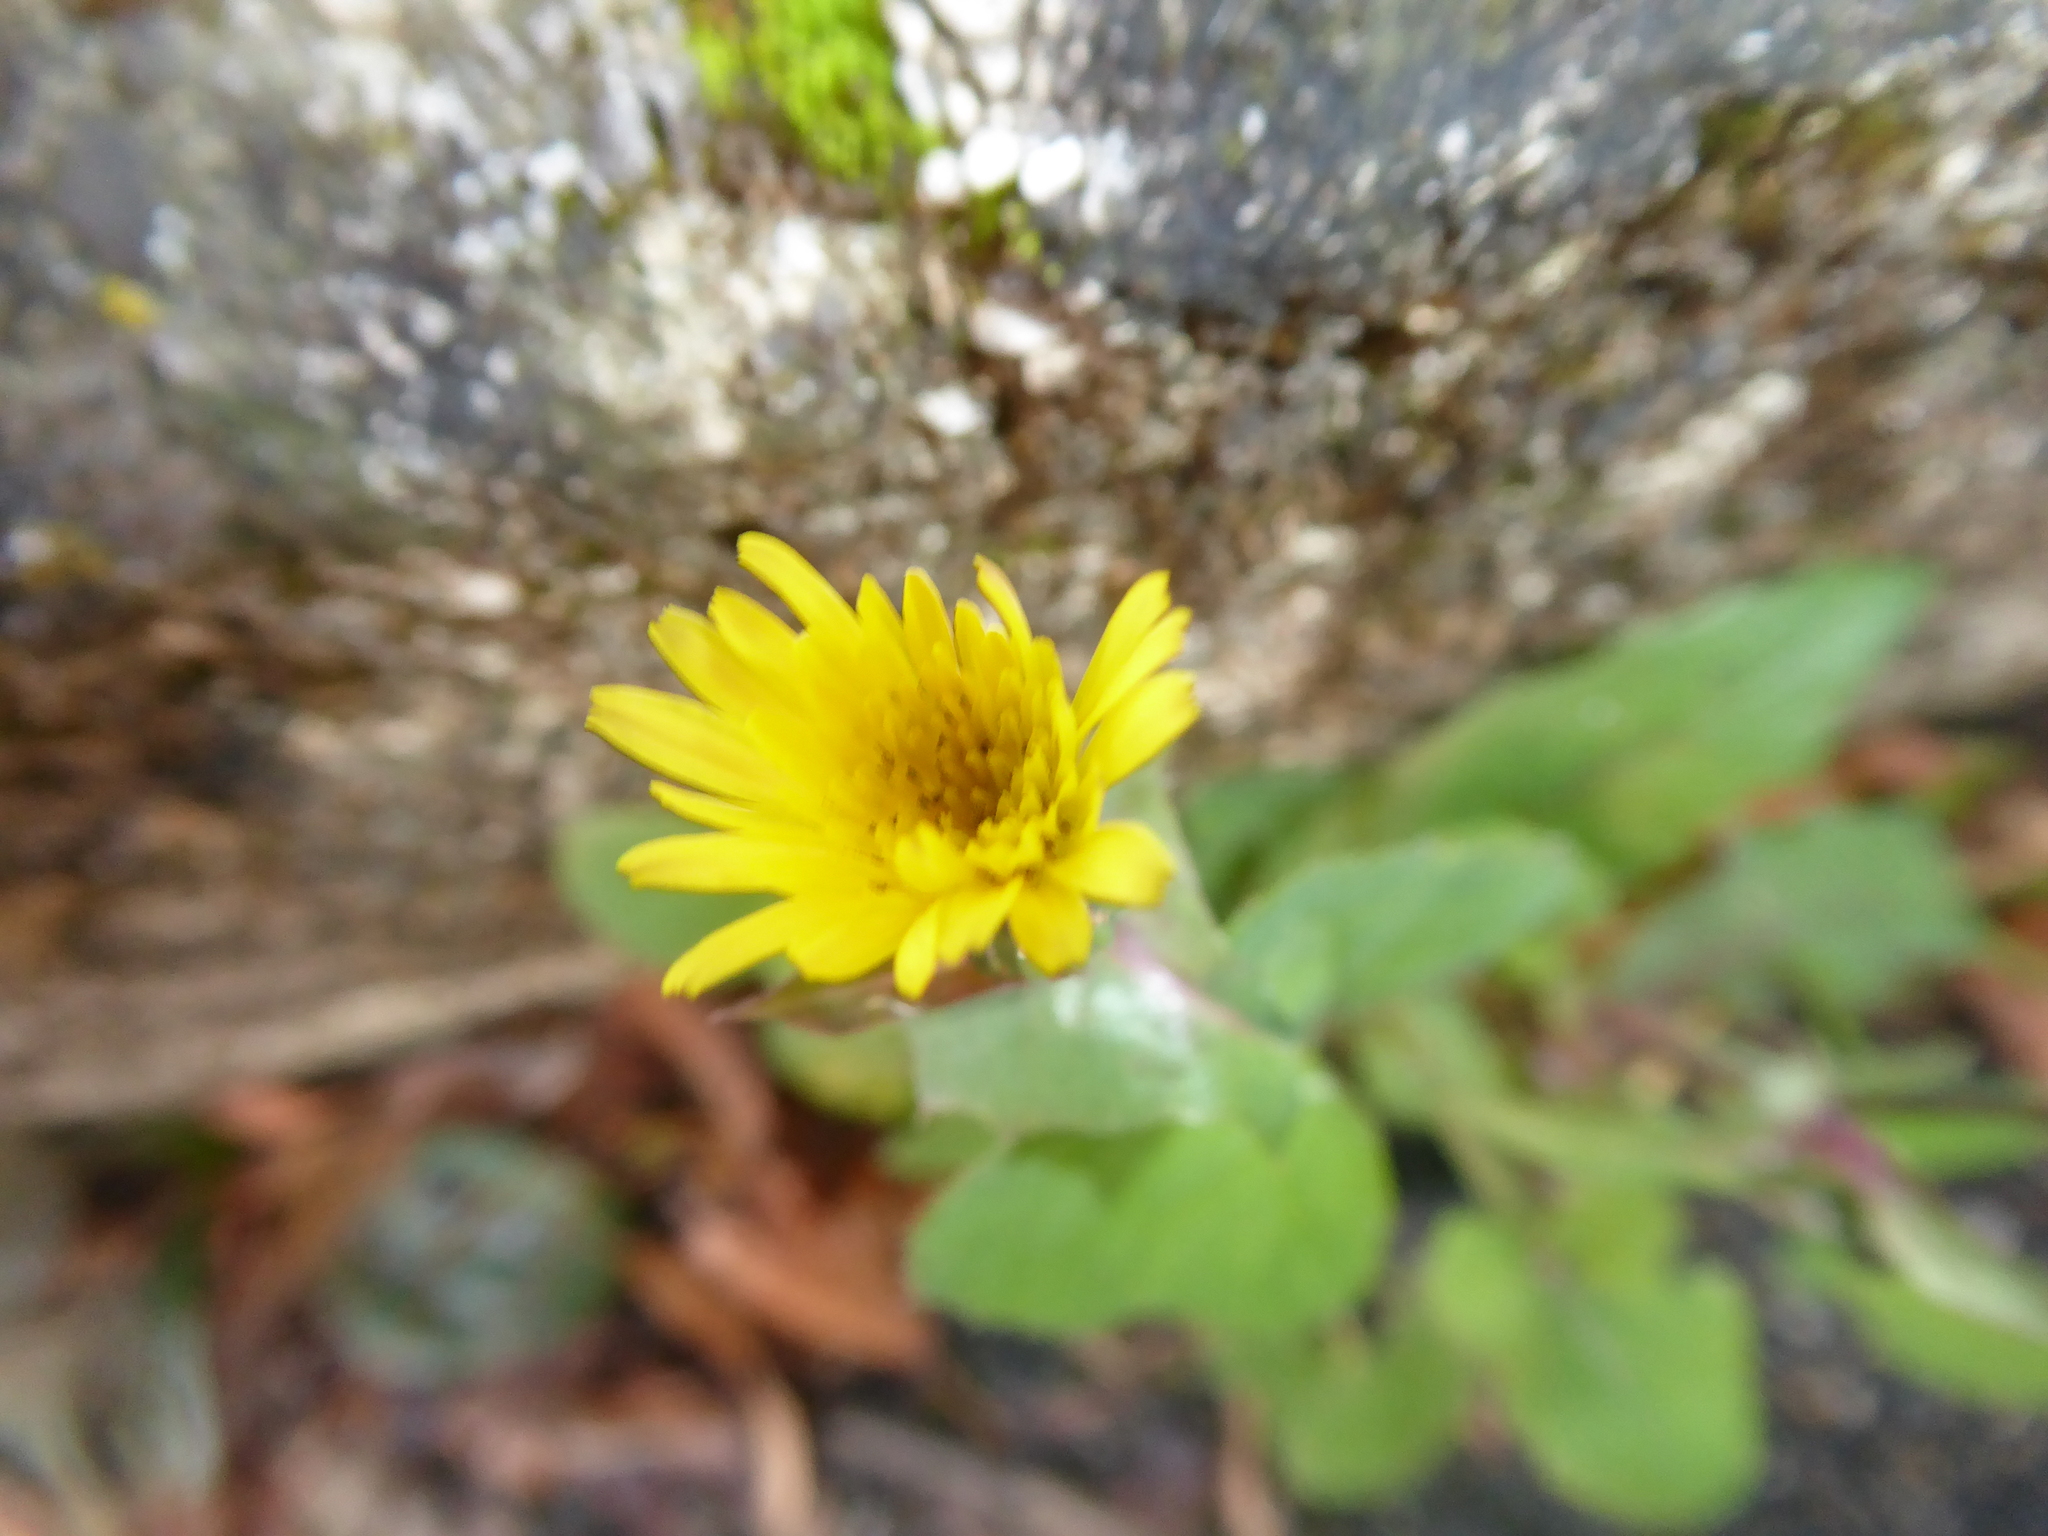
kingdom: Plantae
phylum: Tracheophyta
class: Magnoliopsida
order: Asterales
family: Asteraceae
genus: Sonchus
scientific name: Sonchus oleraceus
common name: Common sowthistle
